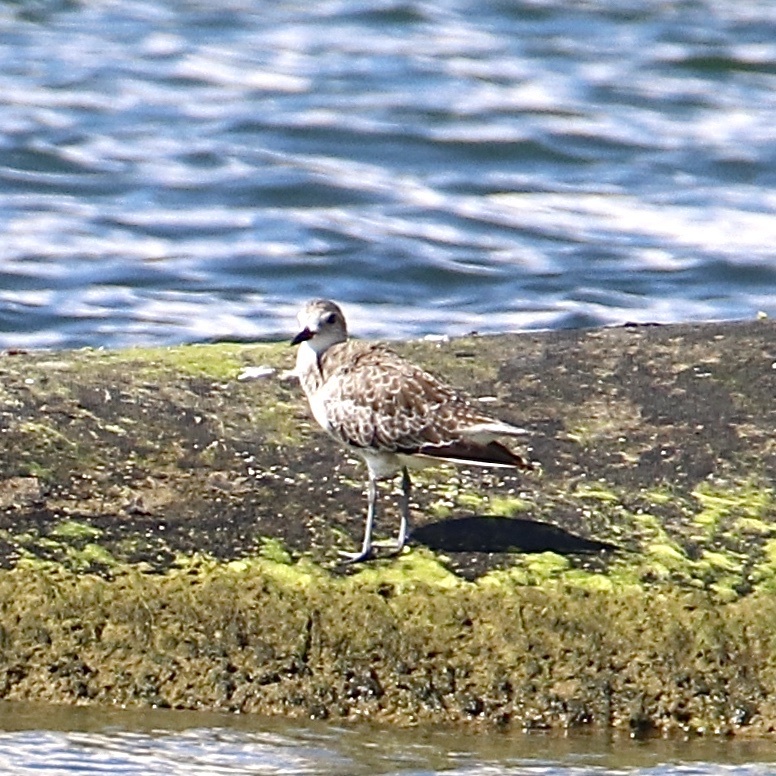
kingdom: Animalia
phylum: Chordata
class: Aves
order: Charadriiformes
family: Charadriidae
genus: Pluvialis
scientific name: Pluvialis squatarola
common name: Grey plover
